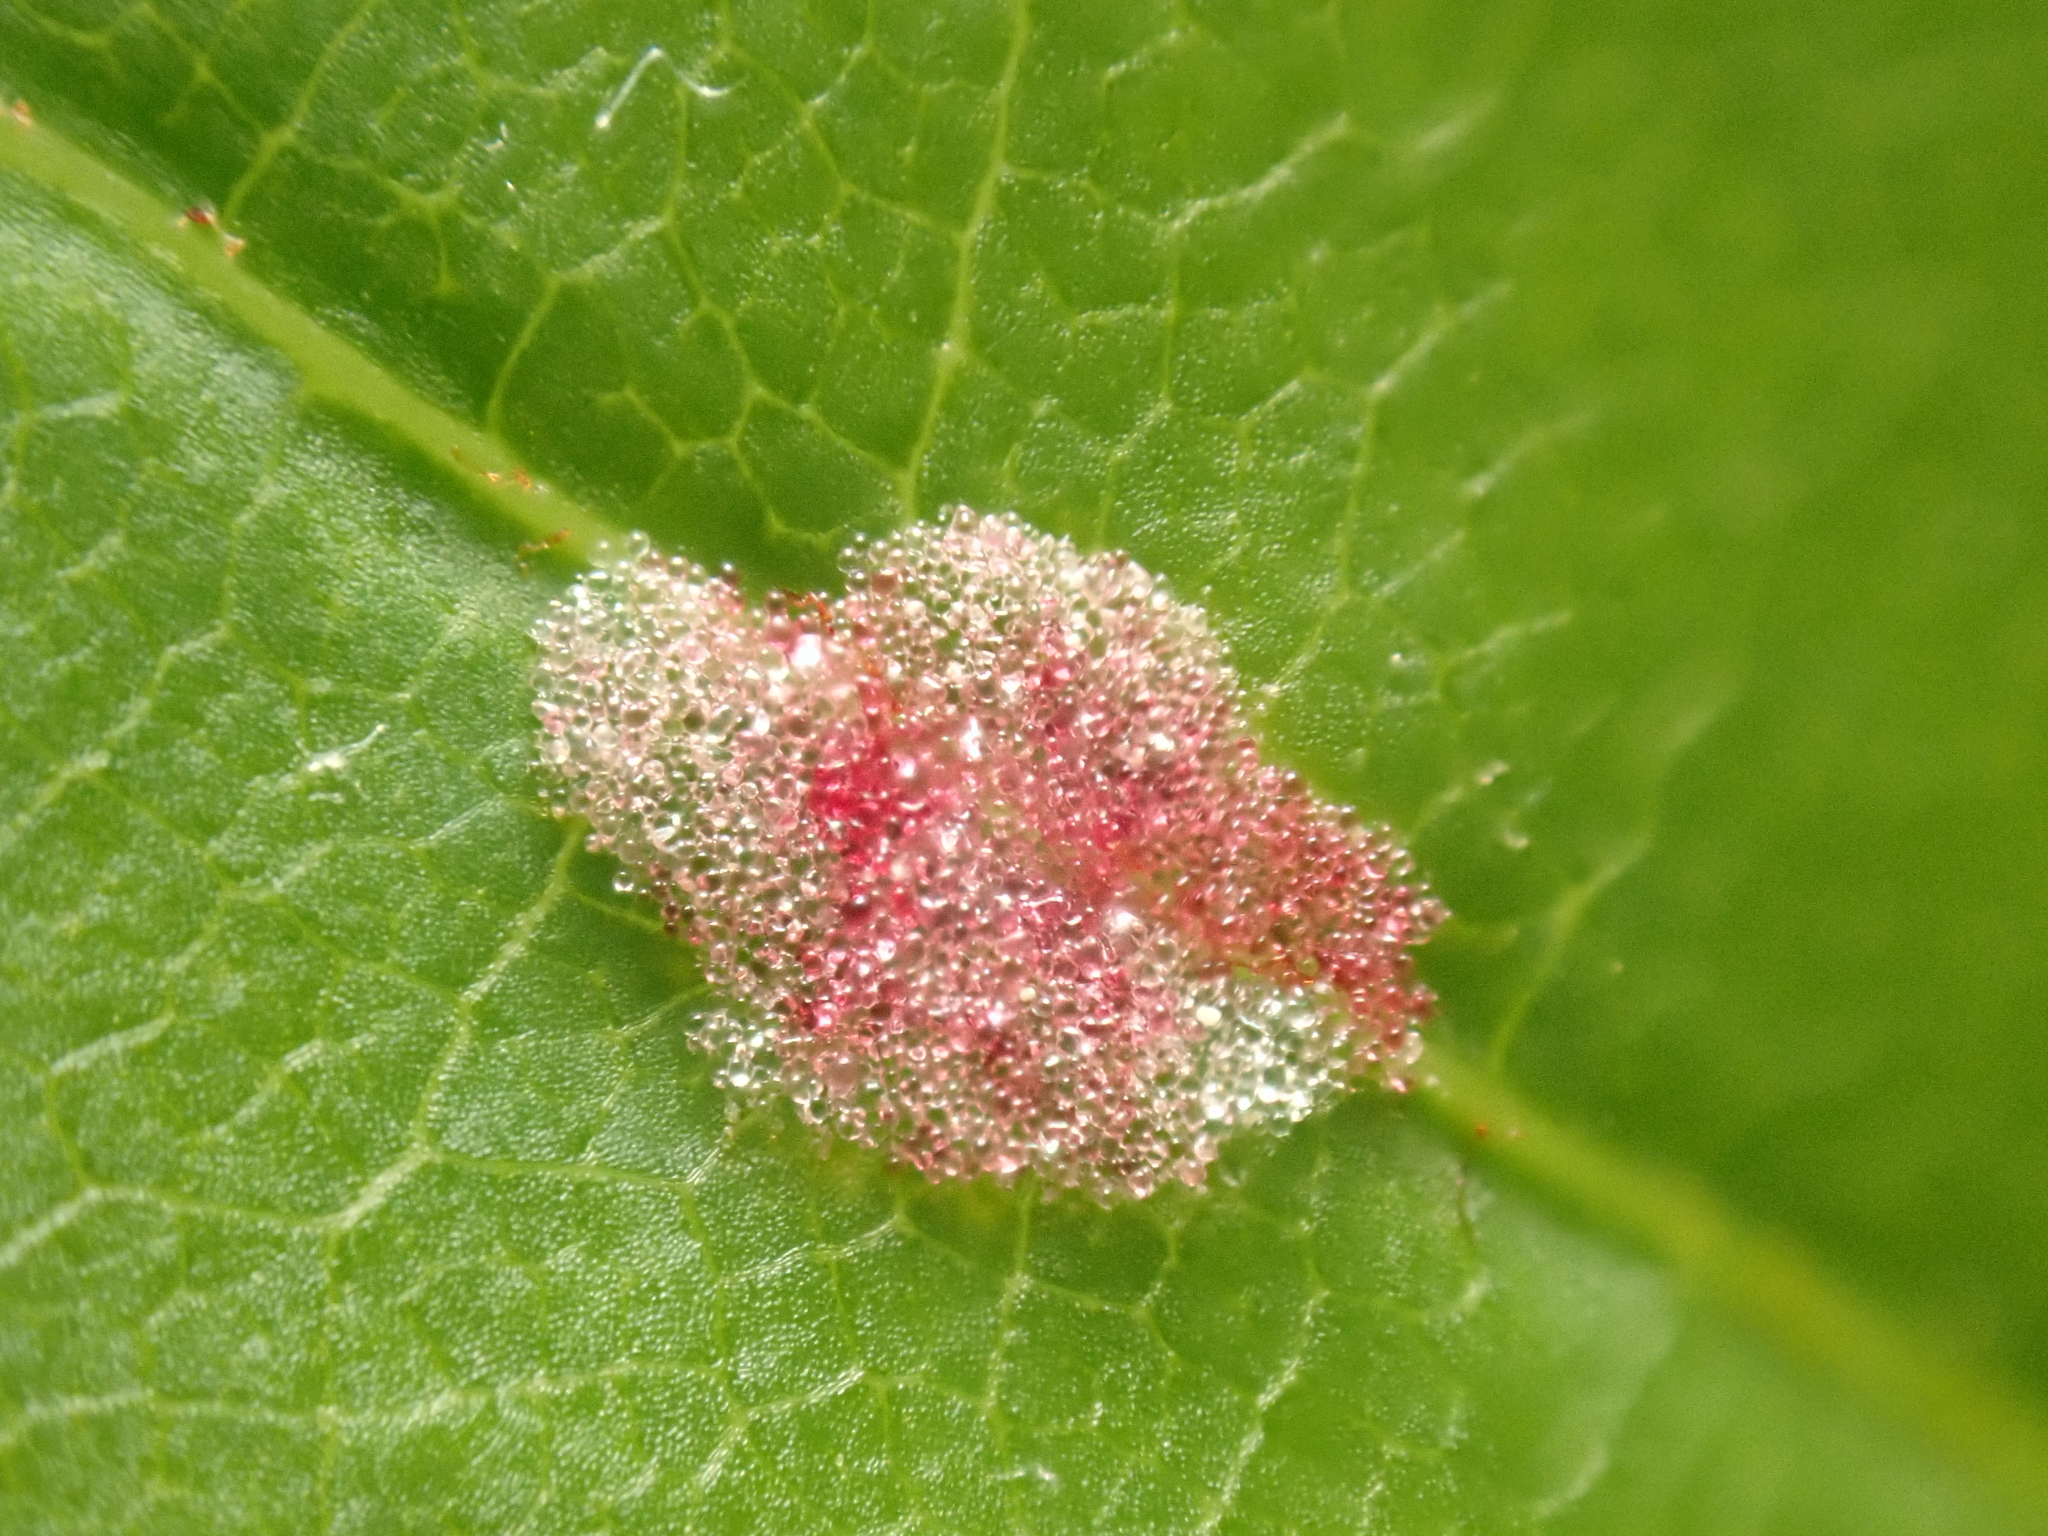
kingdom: Animalia
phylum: Arthropoda
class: Arachnida
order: Trombidiformes
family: Eriophyidae
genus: Aculus
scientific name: Aculus
